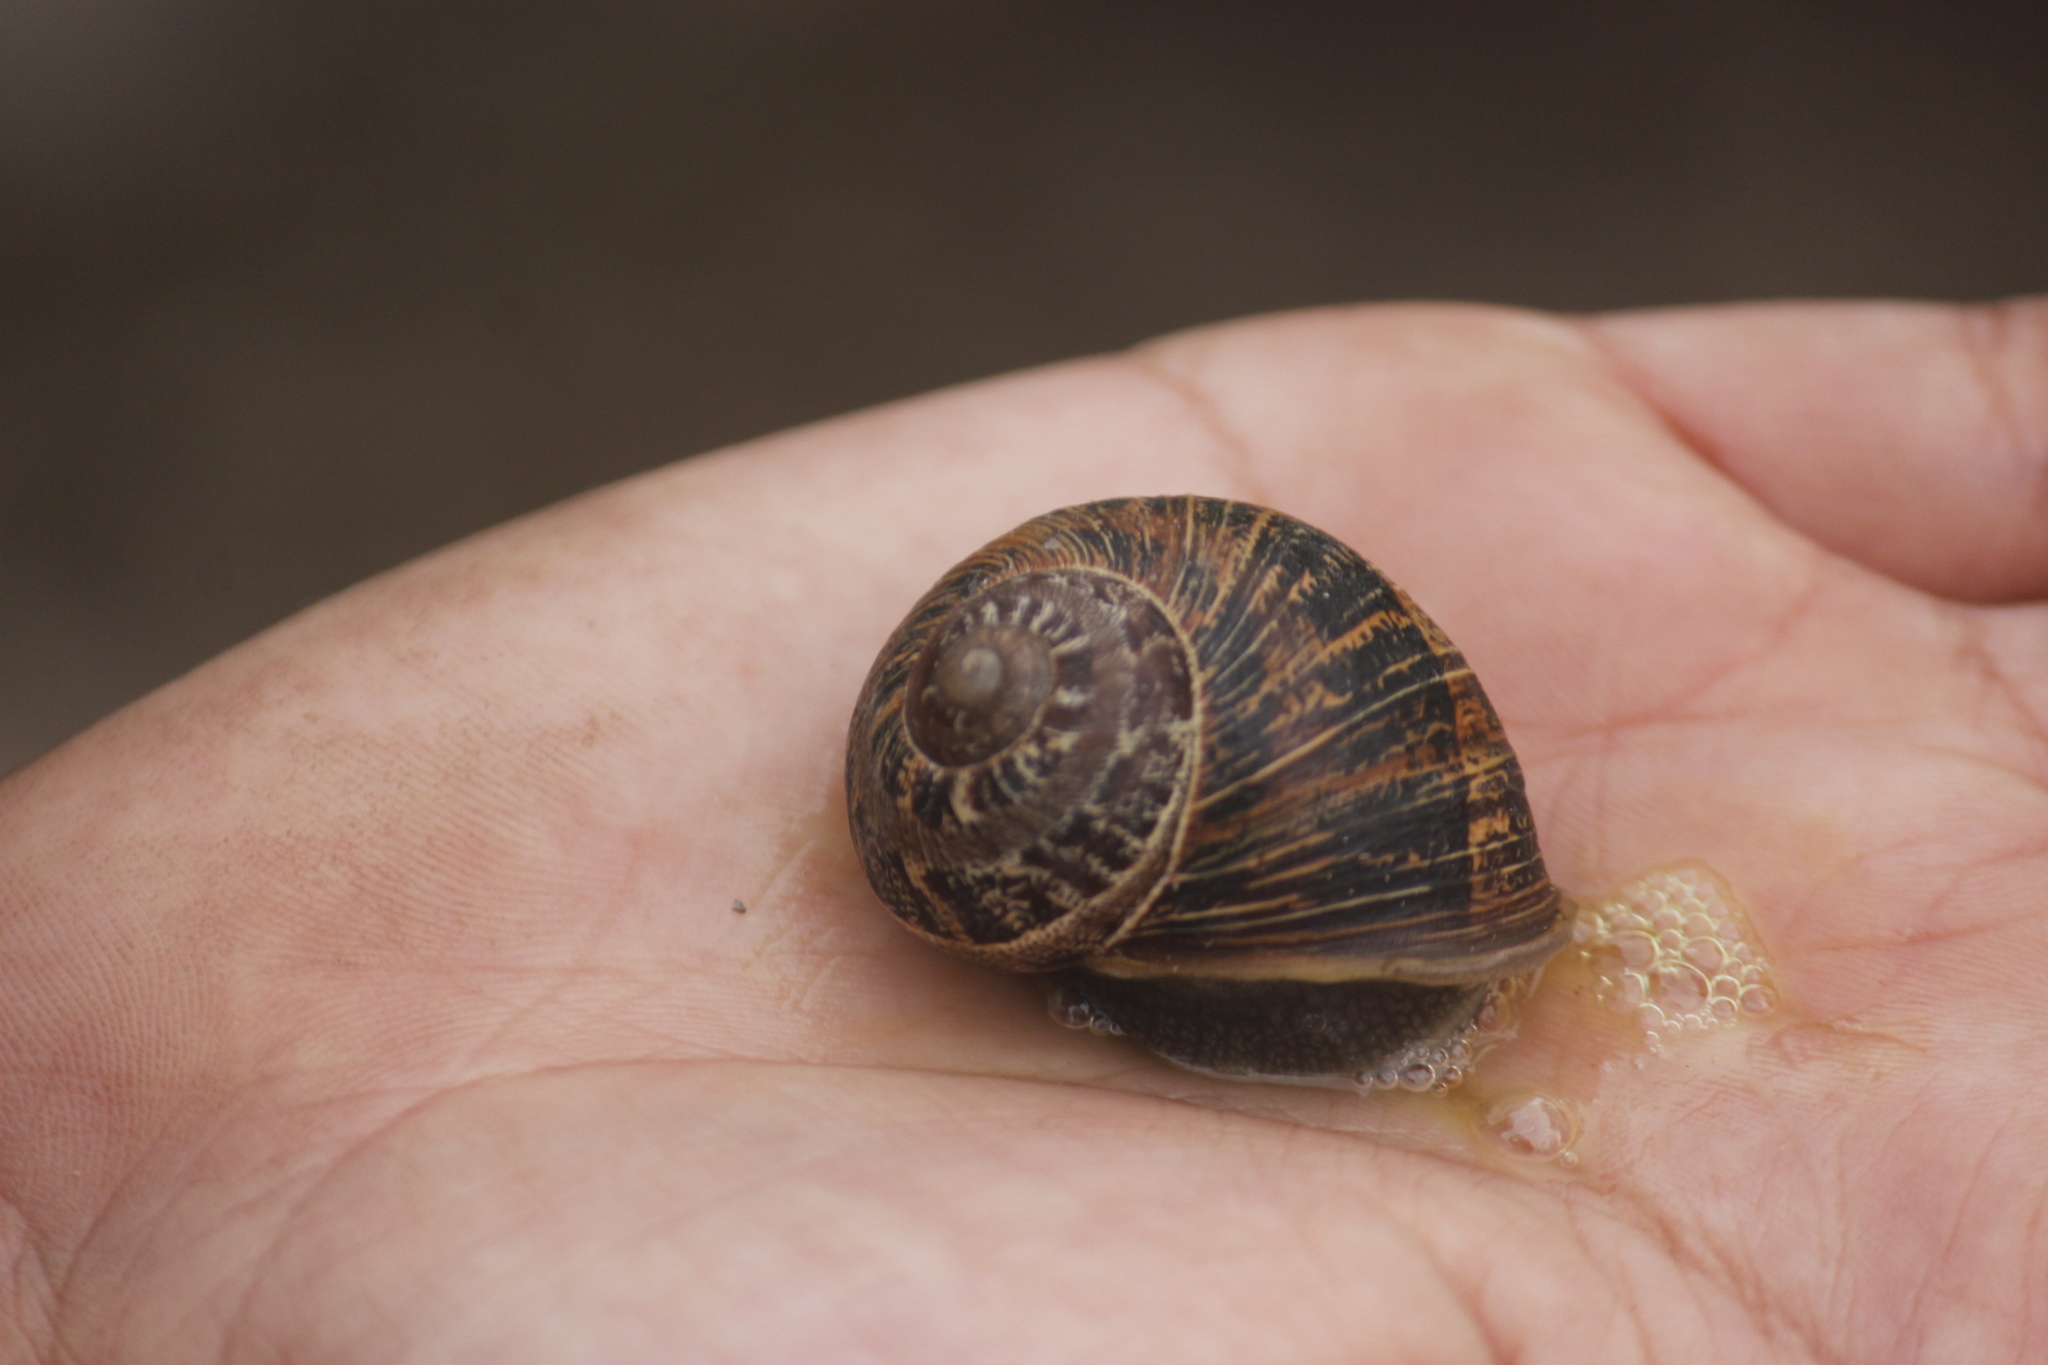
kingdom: Animalia
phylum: Mollusca
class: Gastropoda
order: Stylommatophora
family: Helicidae
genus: Cornu
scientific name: Cornu aspersum
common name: Brown garden snail
